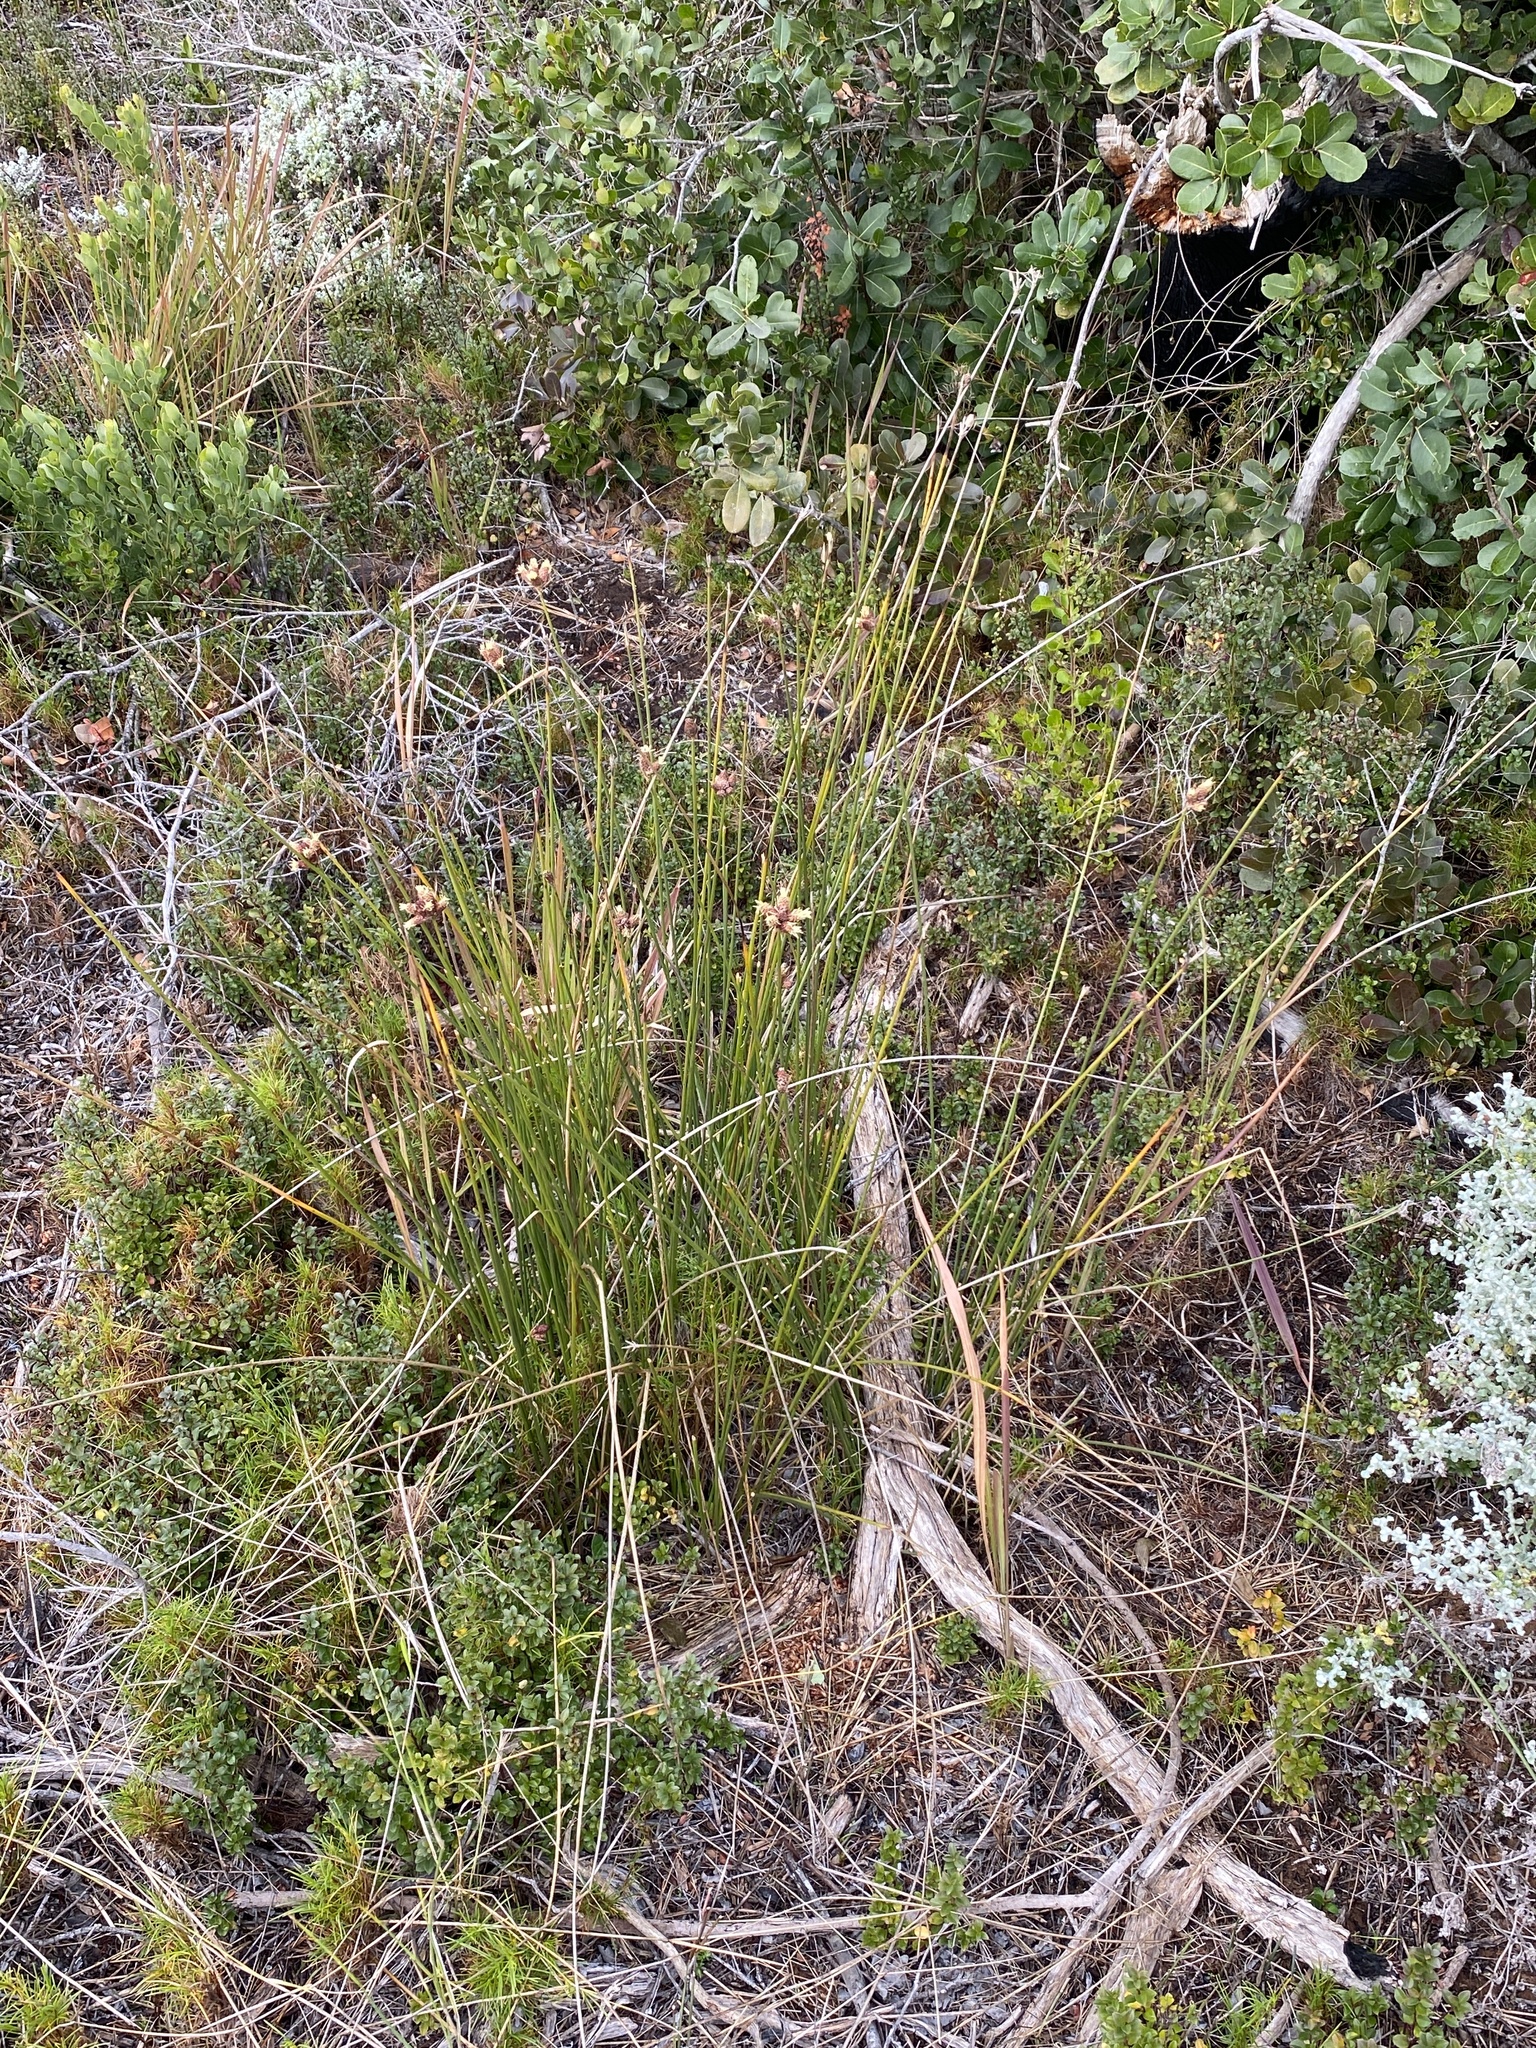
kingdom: Plantae
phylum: Tracheophyta
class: Liliopsida
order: Poales
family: Cyperaceae
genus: Hellmuthia
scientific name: Hellmuthia membranacea
